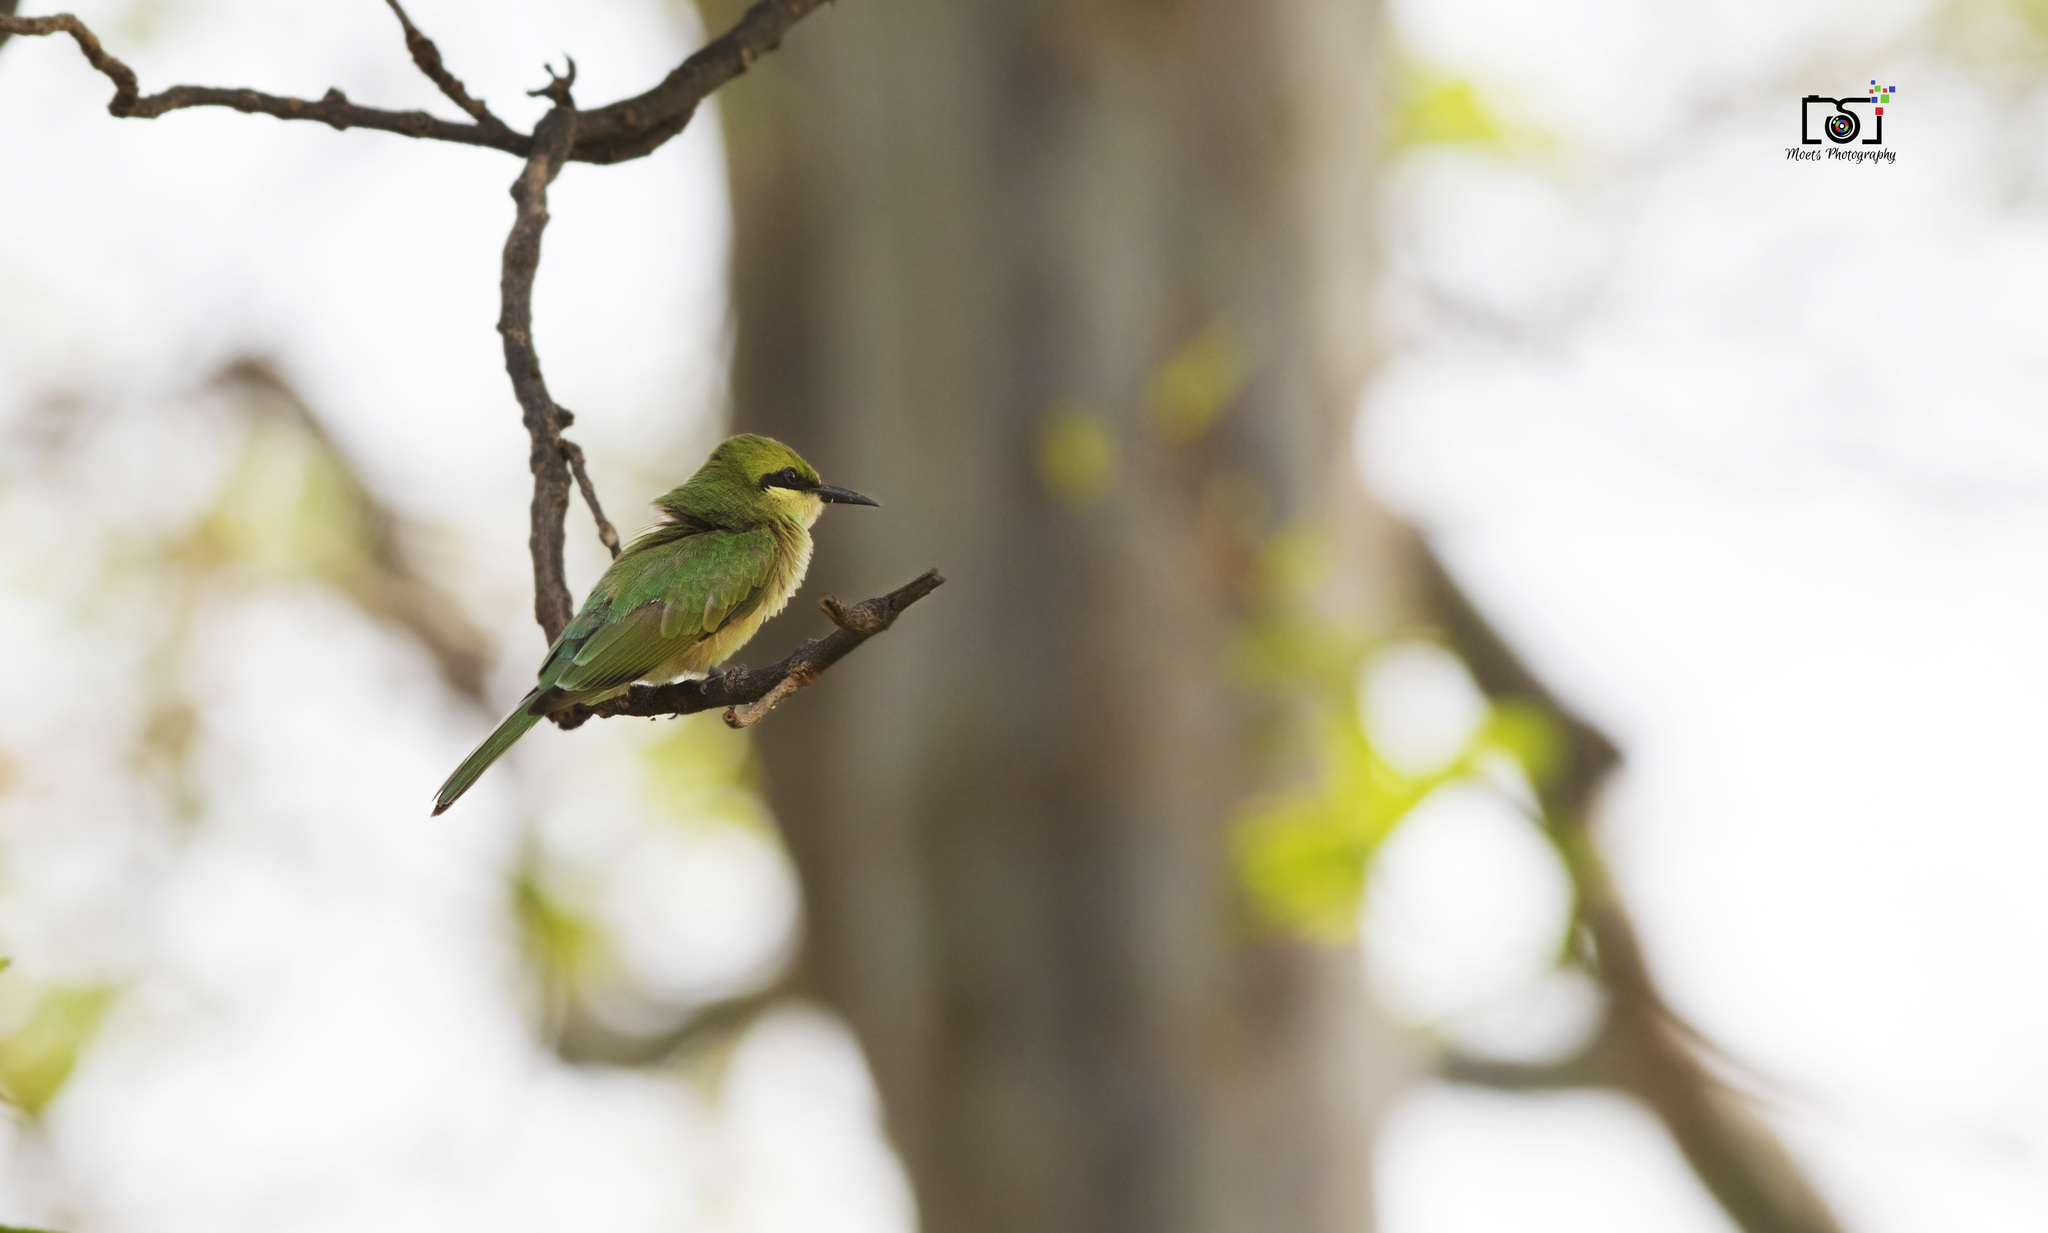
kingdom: Animalia
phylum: Chordata
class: Aves
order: Coraciiformes
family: Meropidae
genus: Merops
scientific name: Merops orientalis
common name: Green bee-eater
